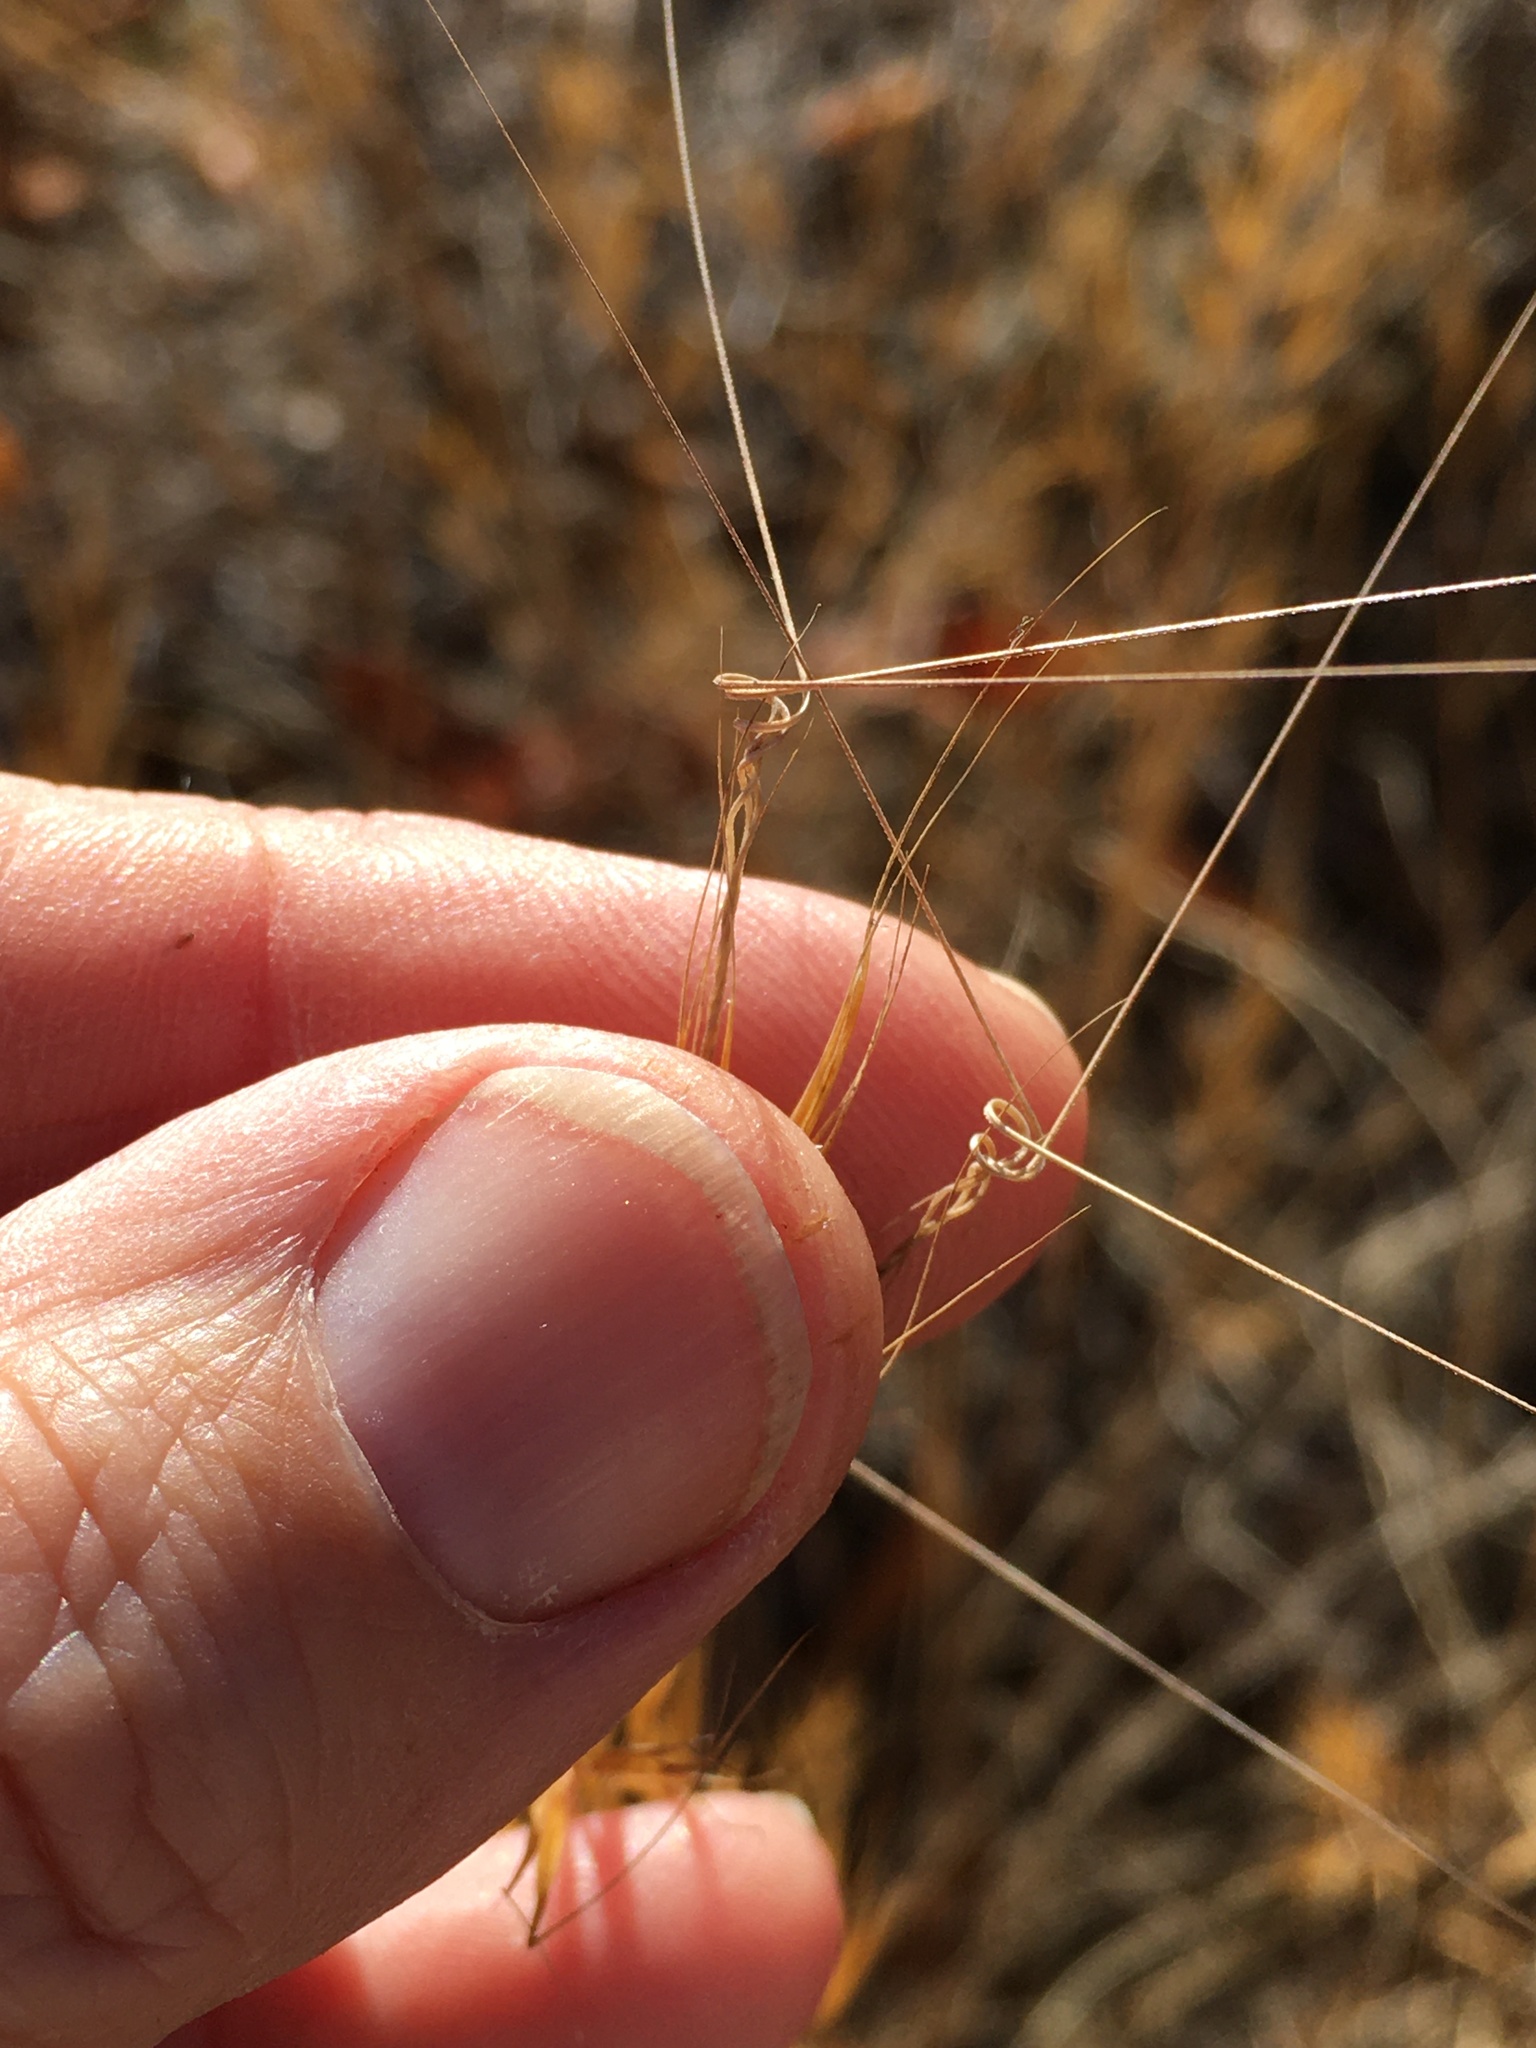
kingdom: Plantae
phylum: Tracheophyta
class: Liliopsida
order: Poales
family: Poaceae
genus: Aristida
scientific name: Aristida tuberculosa
